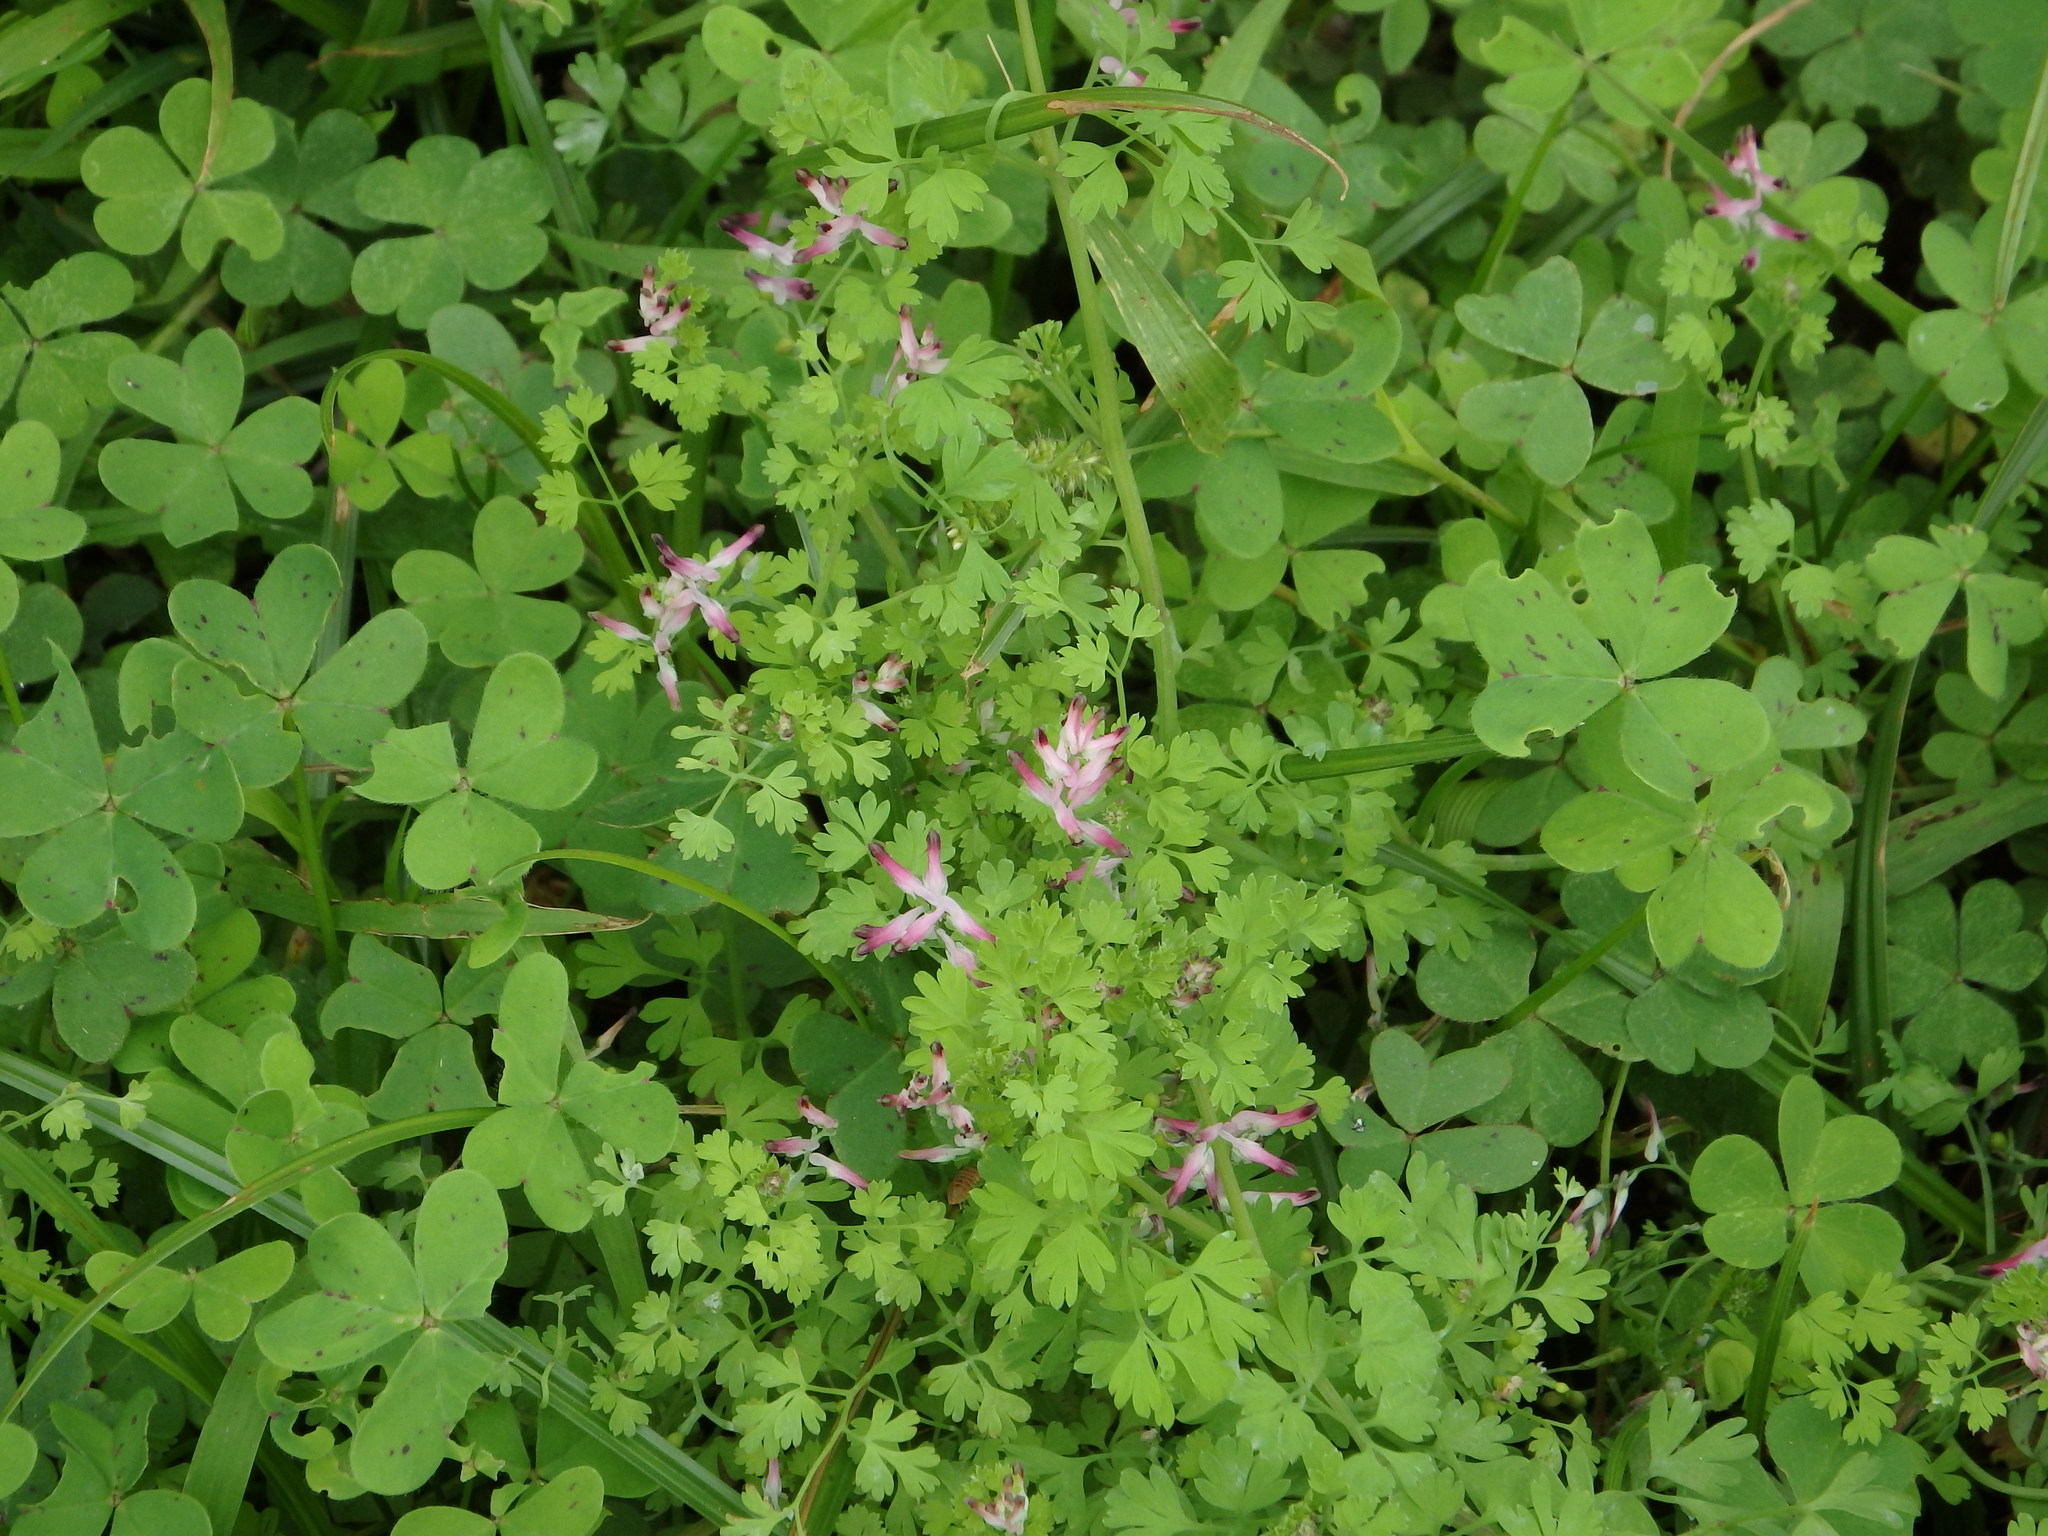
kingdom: Plantae
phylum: Tracheophyta
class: Magnoliopsida
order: Ranunculales
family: Papaveraceae
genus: Fumaria
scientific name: Fumaria muralis
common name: Common ramping-fumitory
